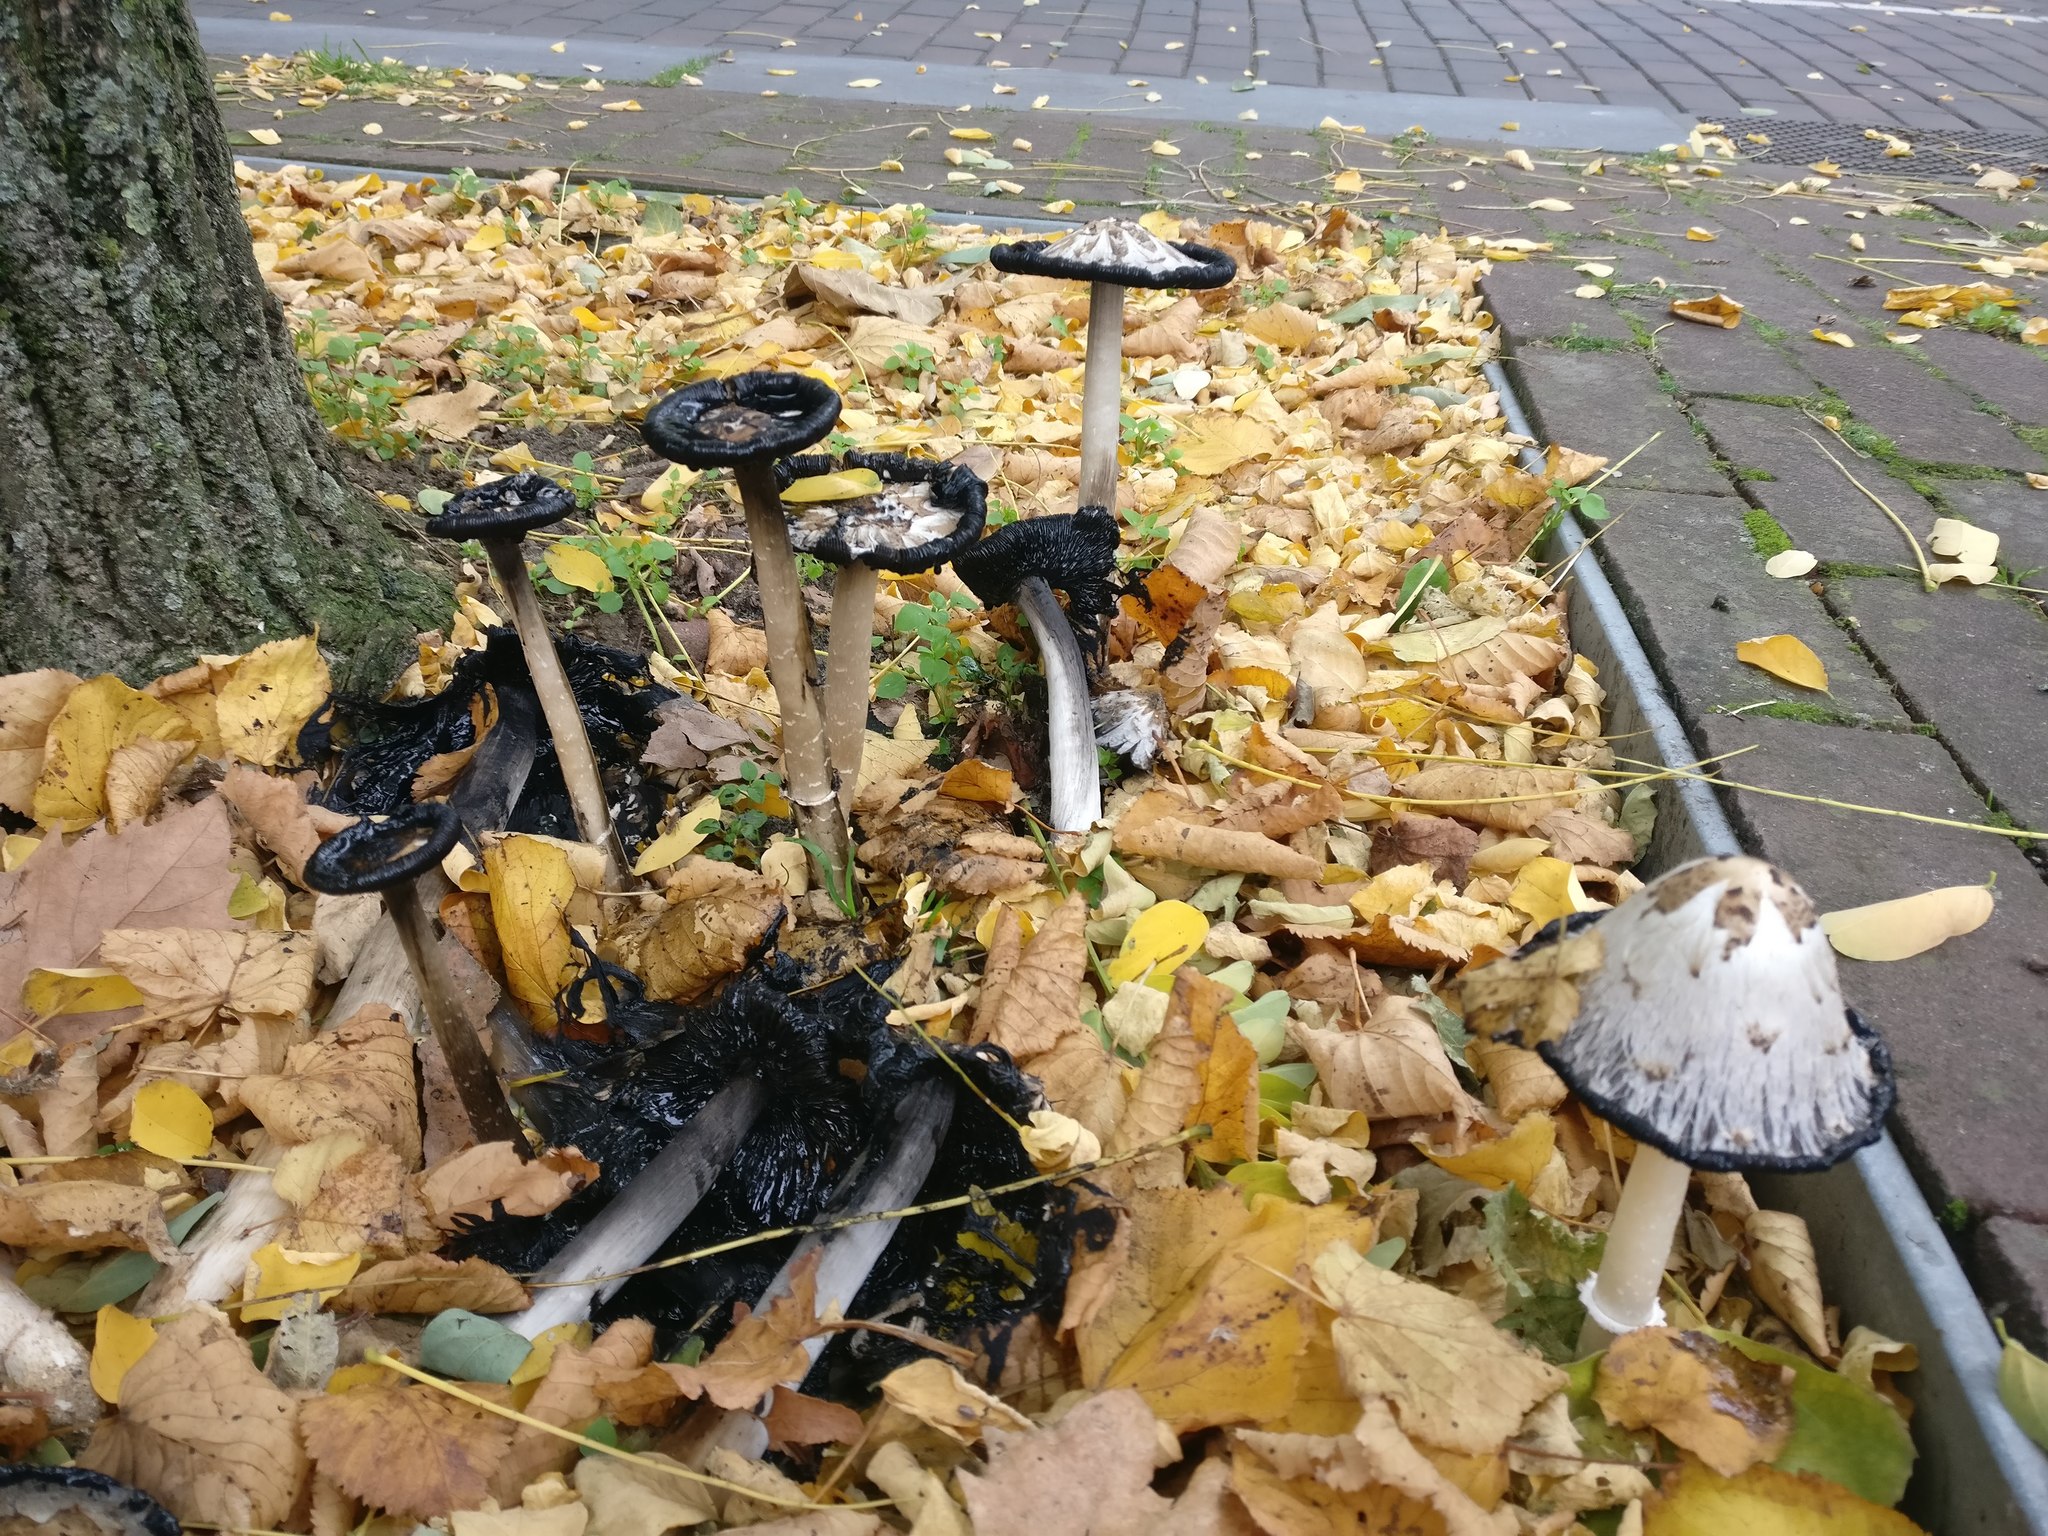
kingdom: Fungi
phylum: Basidiomycota
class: Agaricomycetes
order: Agaricales
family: Agaricaceae
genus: Coprinus
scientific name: Coprinus comatus
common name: Lawyer's wig
